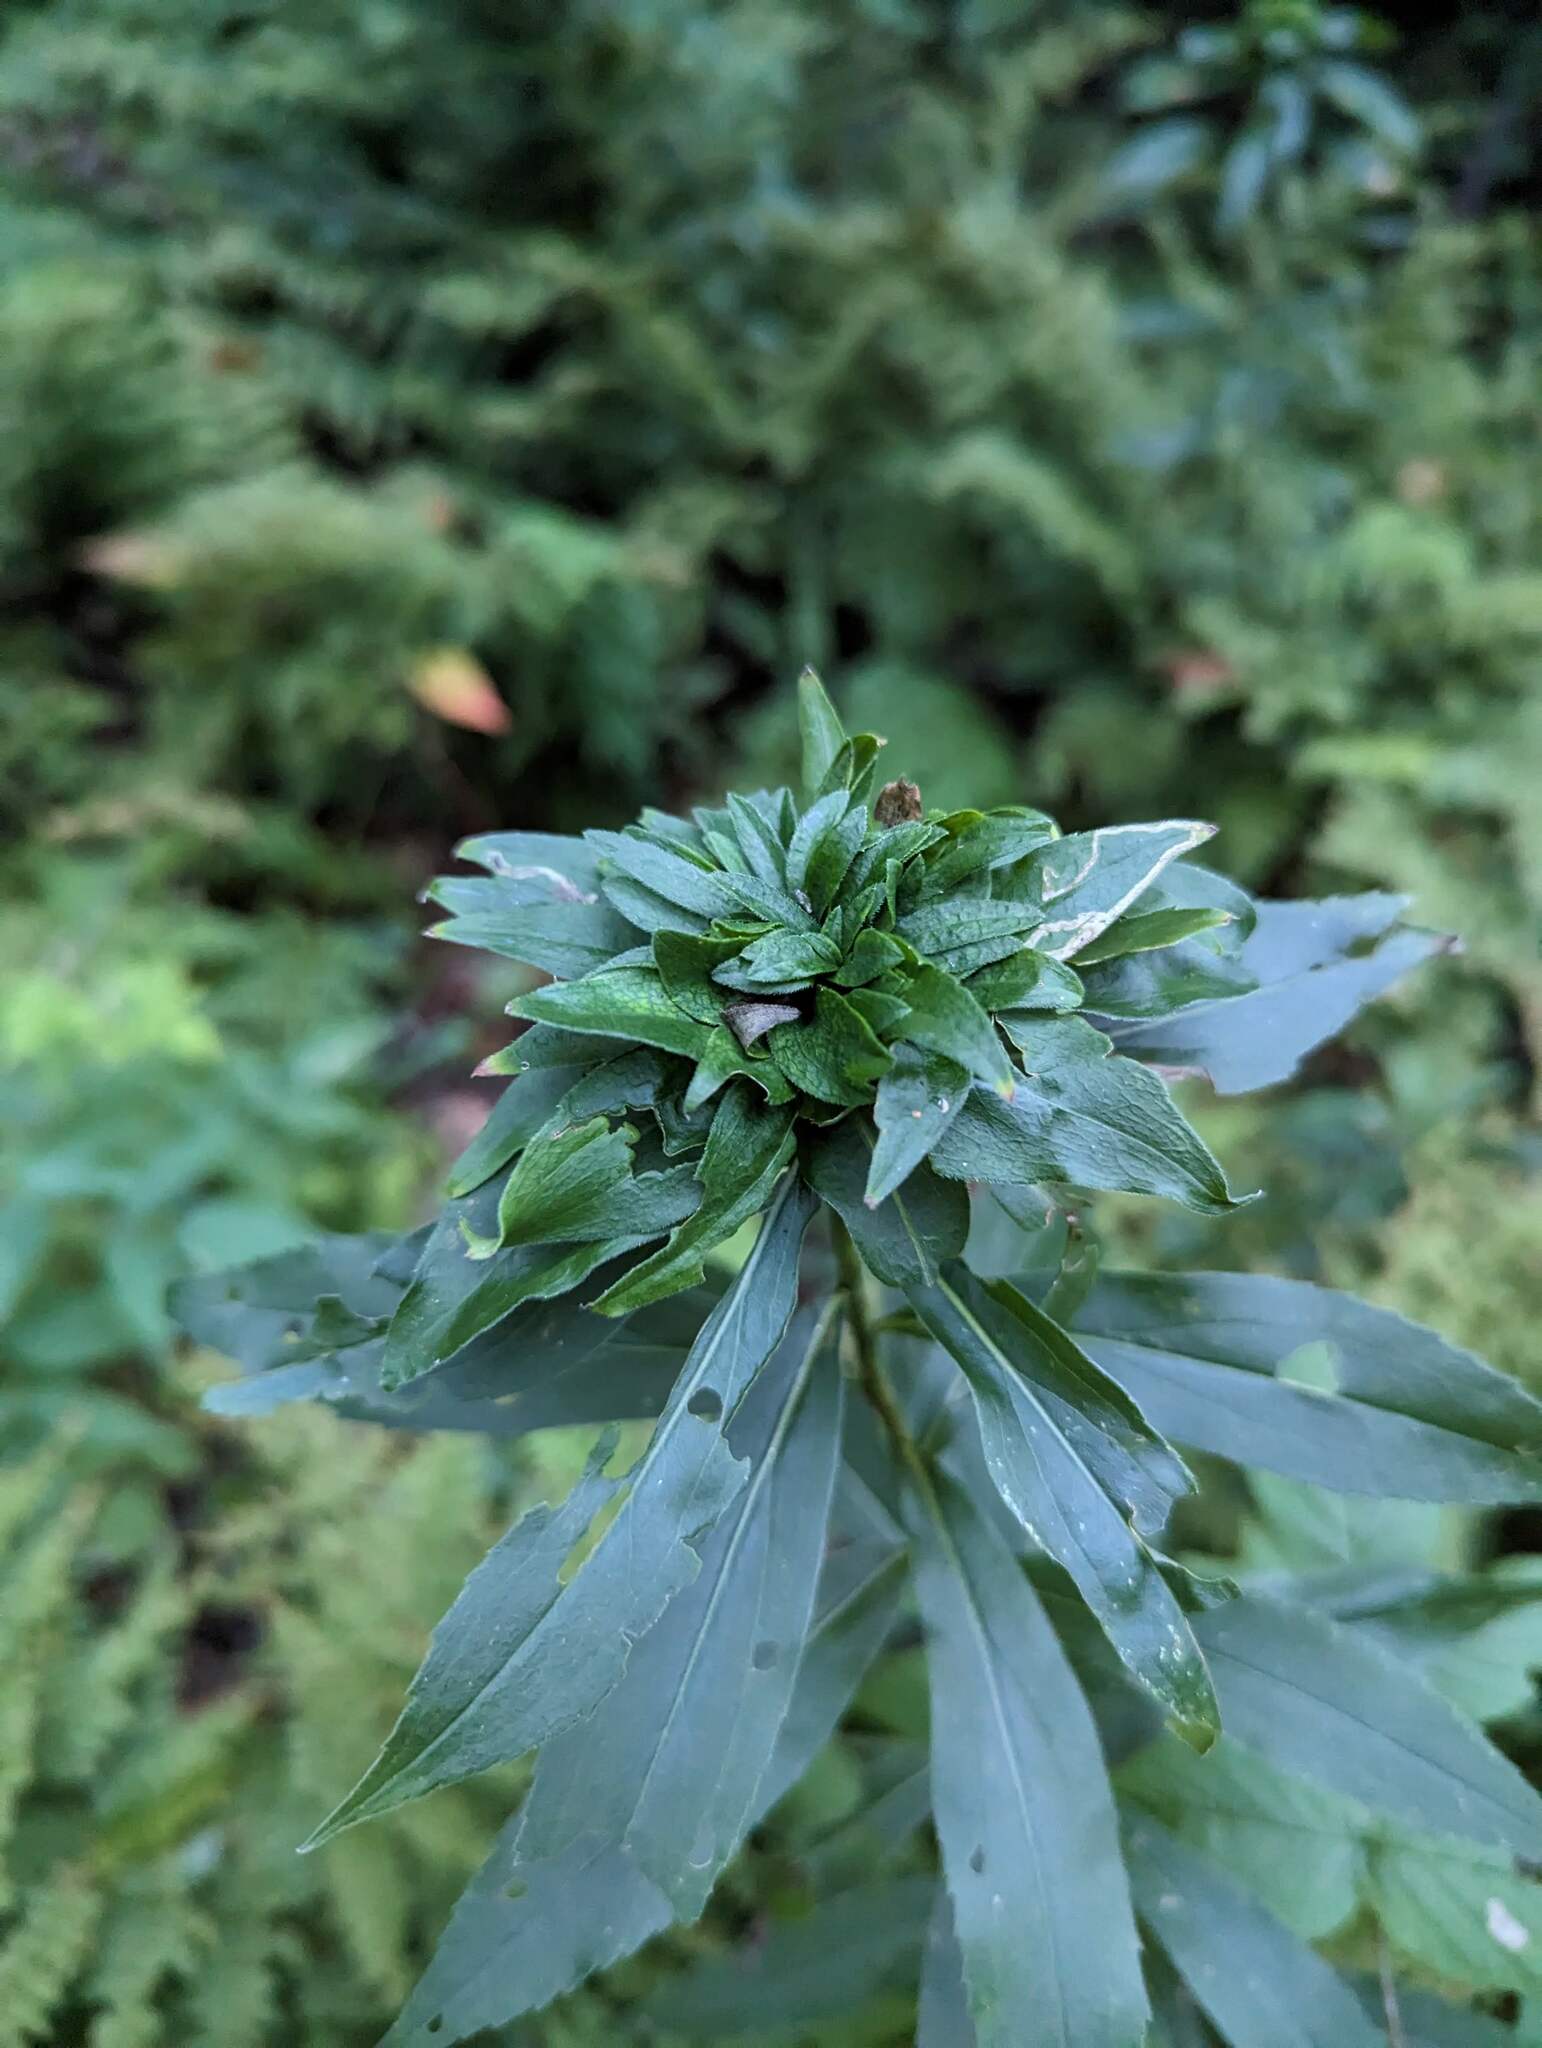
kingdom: Animalia
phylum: Arthropoda
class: Insecta
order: Diptera
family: Cecidomyiidae
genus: Rhopalomyia
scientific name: Rhopalomyia capitata
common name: Giant goldenrod bunch gall midge
